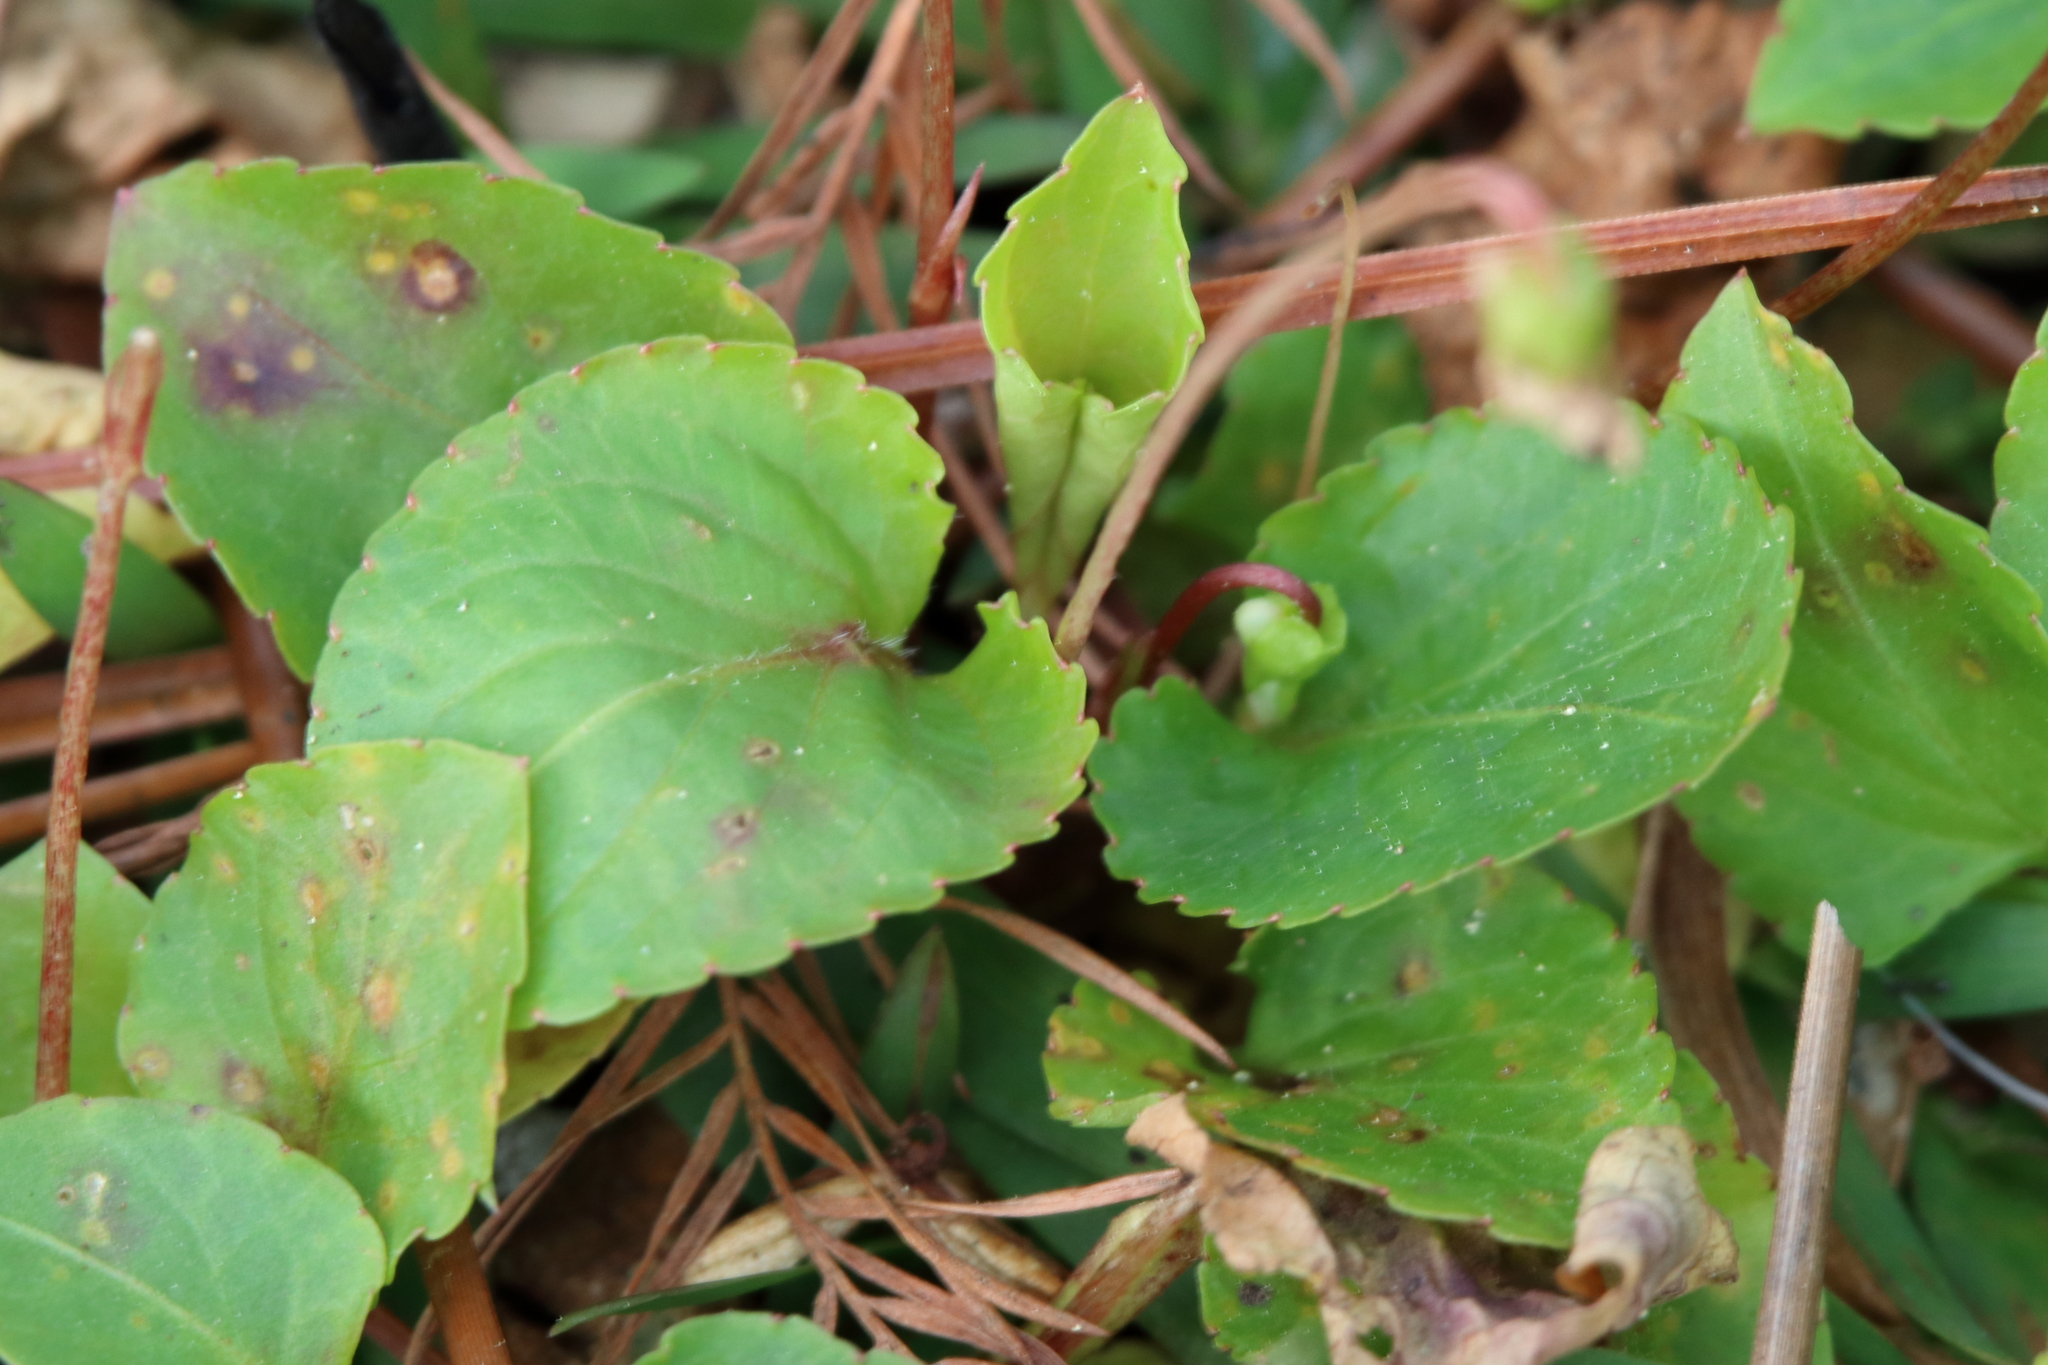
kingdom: Plantae
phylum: Tracheophyta
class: Magnoliopsida
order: Malpighiales
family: Violaceae
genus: Viola
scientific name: Viola primulifolia
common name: Primrose-leaf violet
